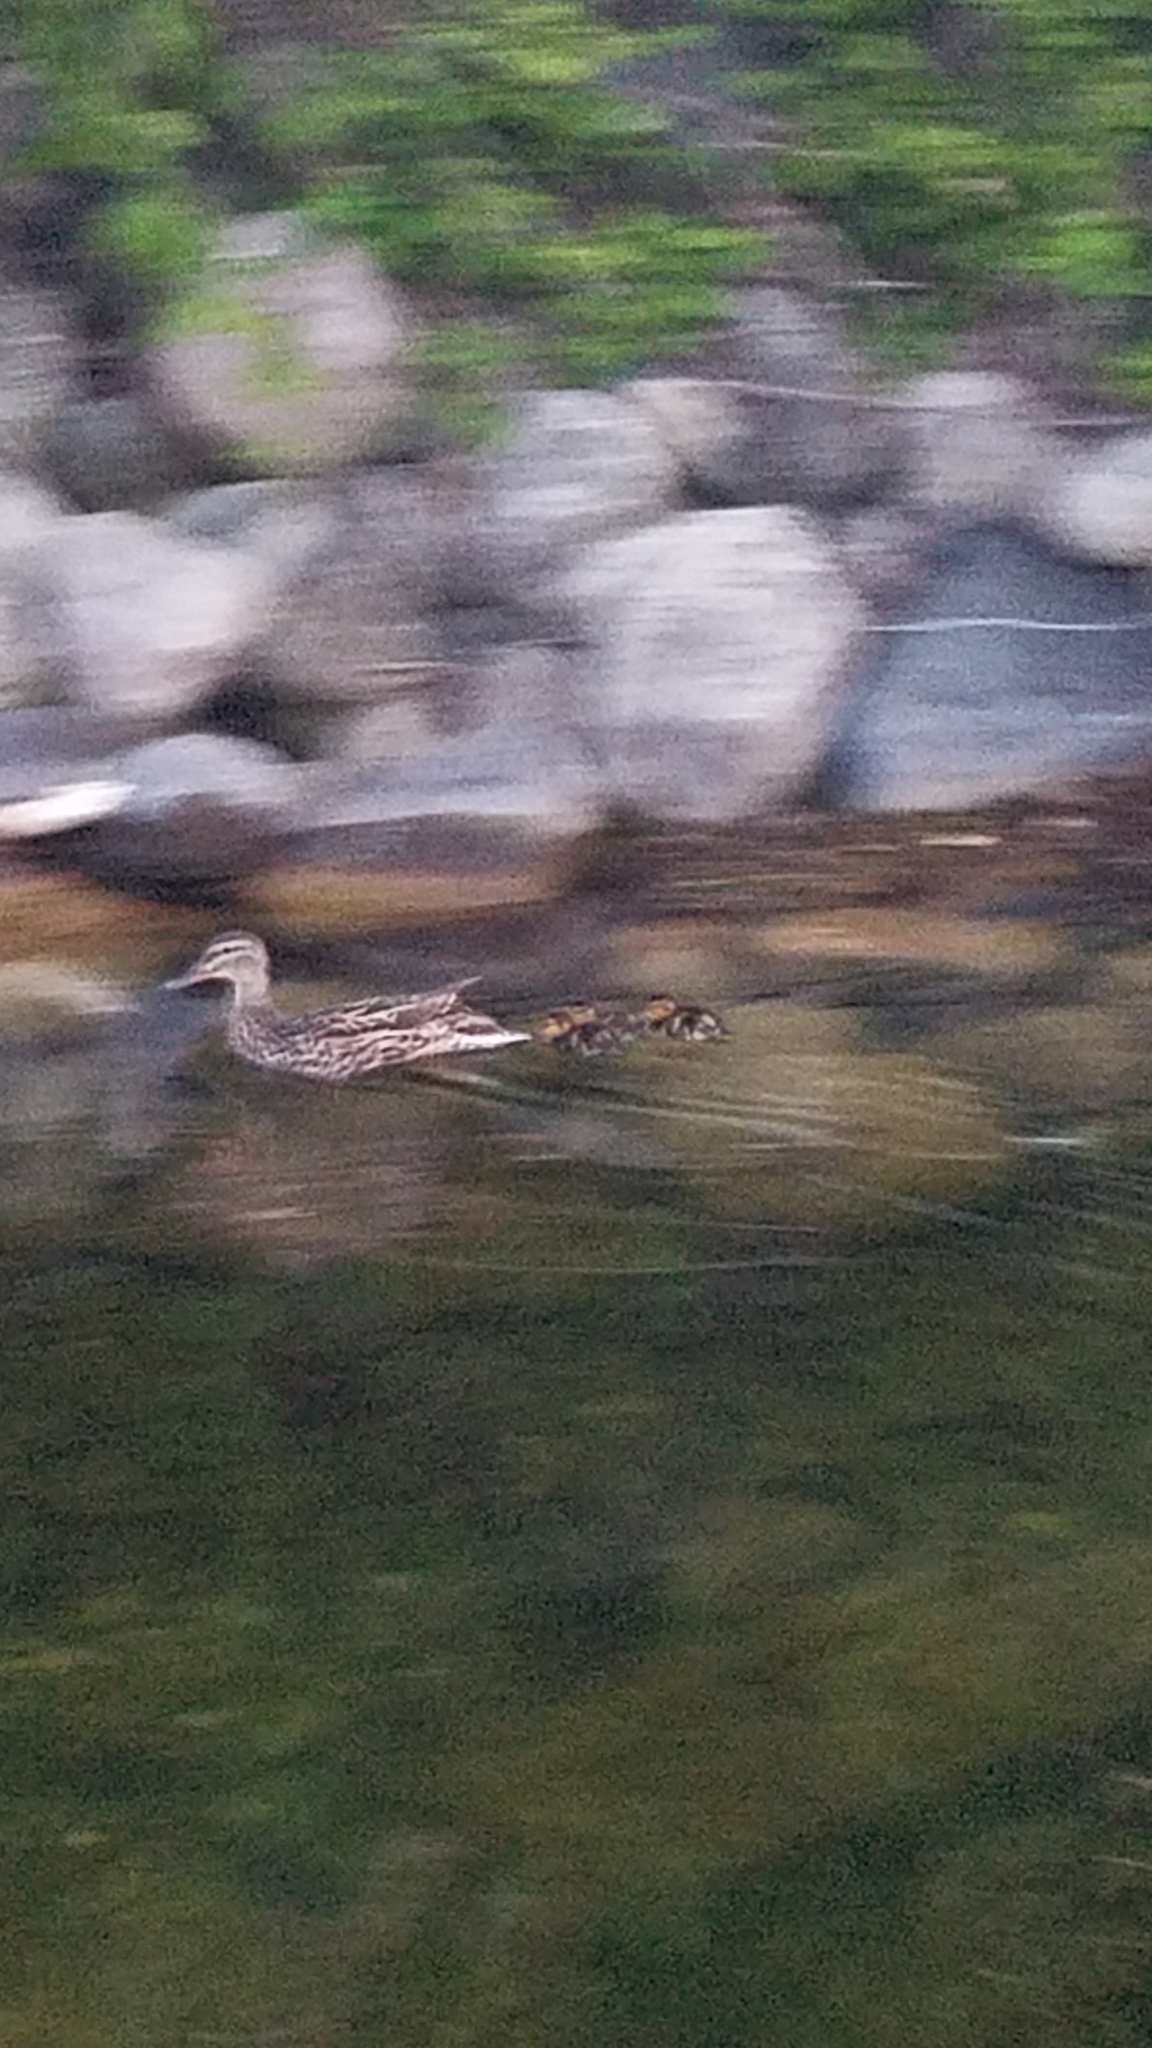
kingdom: Animalia
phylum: Chordata
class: Aves
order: Anseriformes
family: Anatidae
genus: Anas
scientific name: Anas platyrhynchos
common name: Mallard
